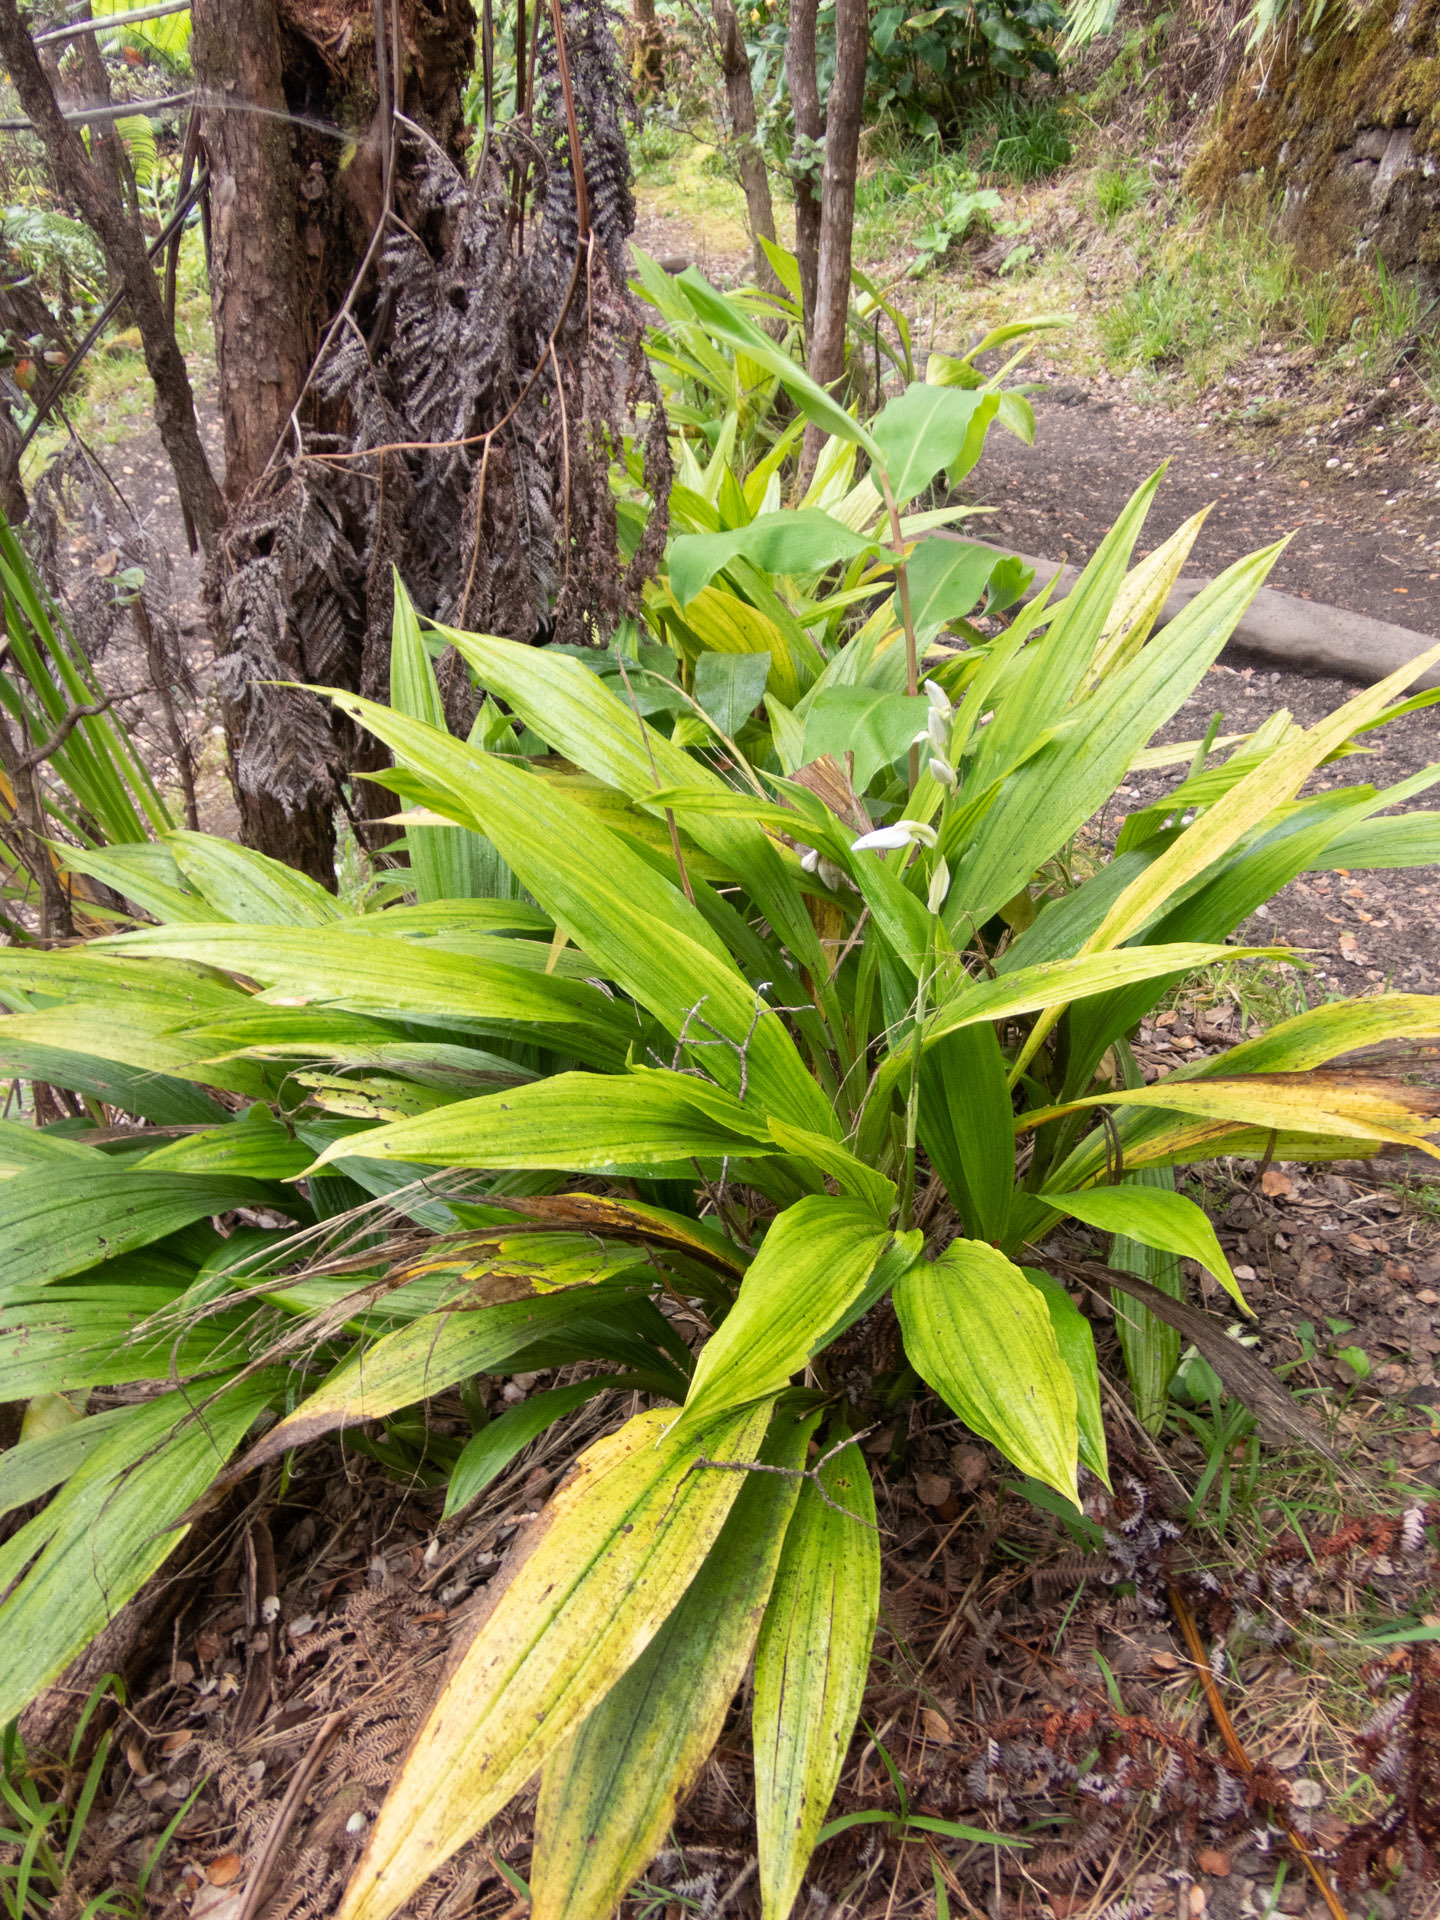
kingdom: Plantae
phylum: Tracheophyta
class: Liliopsida
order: Asparagales
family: Orchidaceae
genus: Calanthe
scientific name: Calanthe tankervilleae
